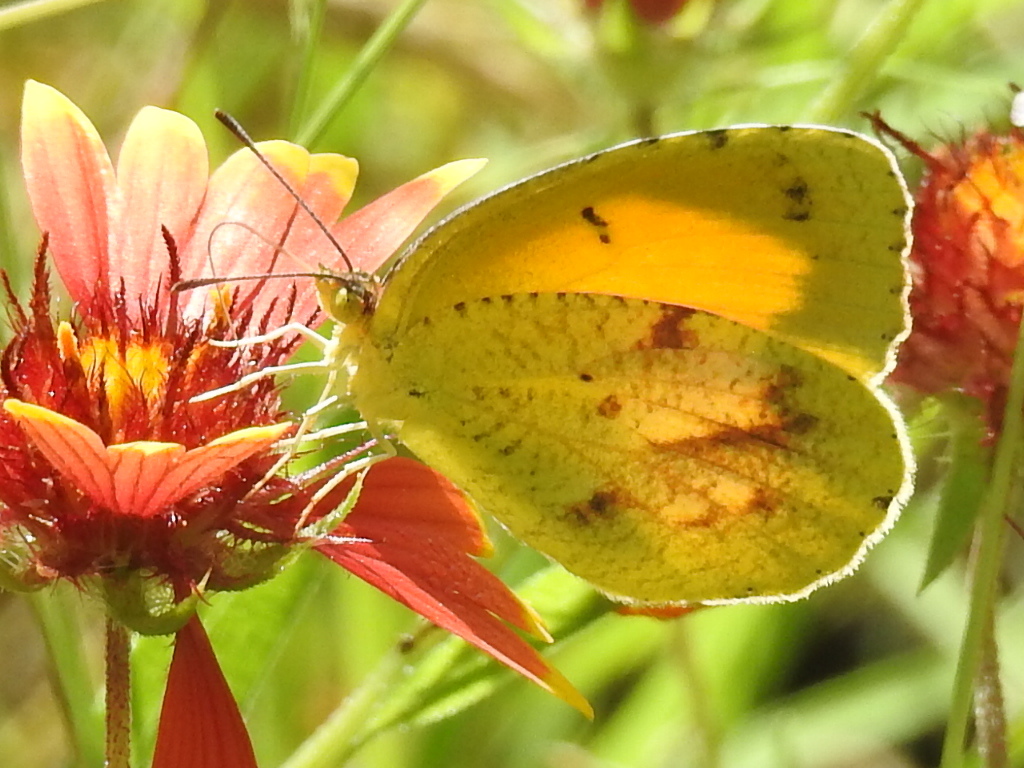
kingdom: Animalia
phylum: Arthropoda
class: Insecta
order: Lepidoptera
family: Pieridae
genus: Abaeis
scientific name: Abaeis nicippe
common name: Sleepy orange
